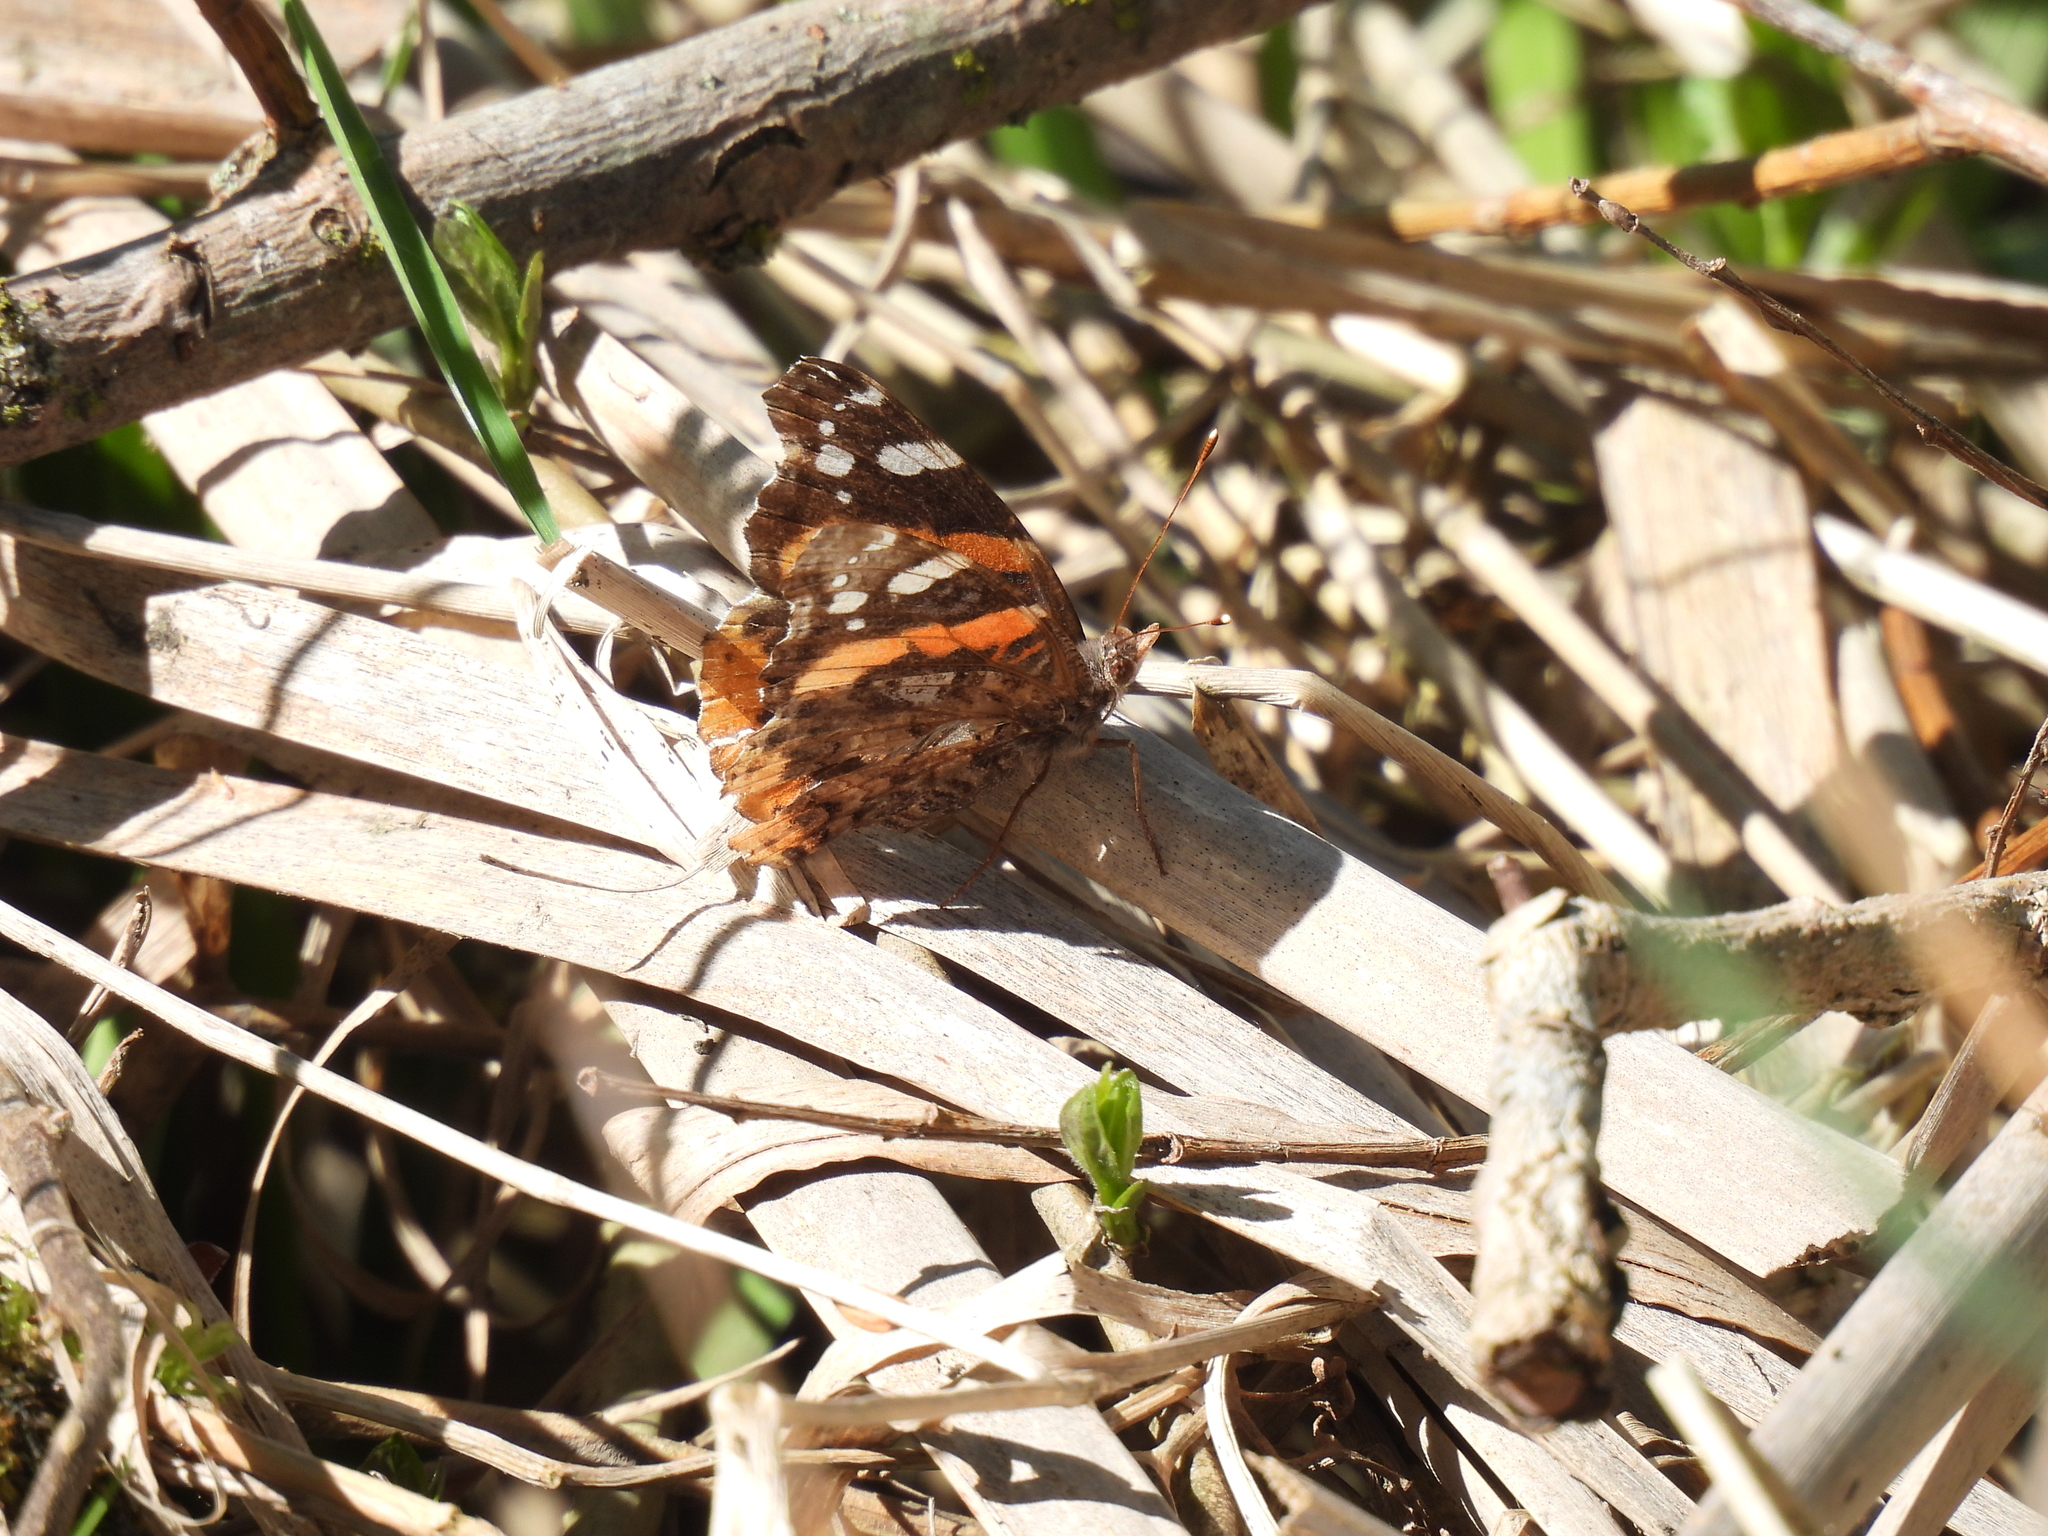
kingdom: Animalia
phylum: Arthropoda
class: Insecta
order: Lepidoptera
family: Nymphalidae
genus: Vanessa
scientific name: Vanessa atalanta
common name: Red admiral
